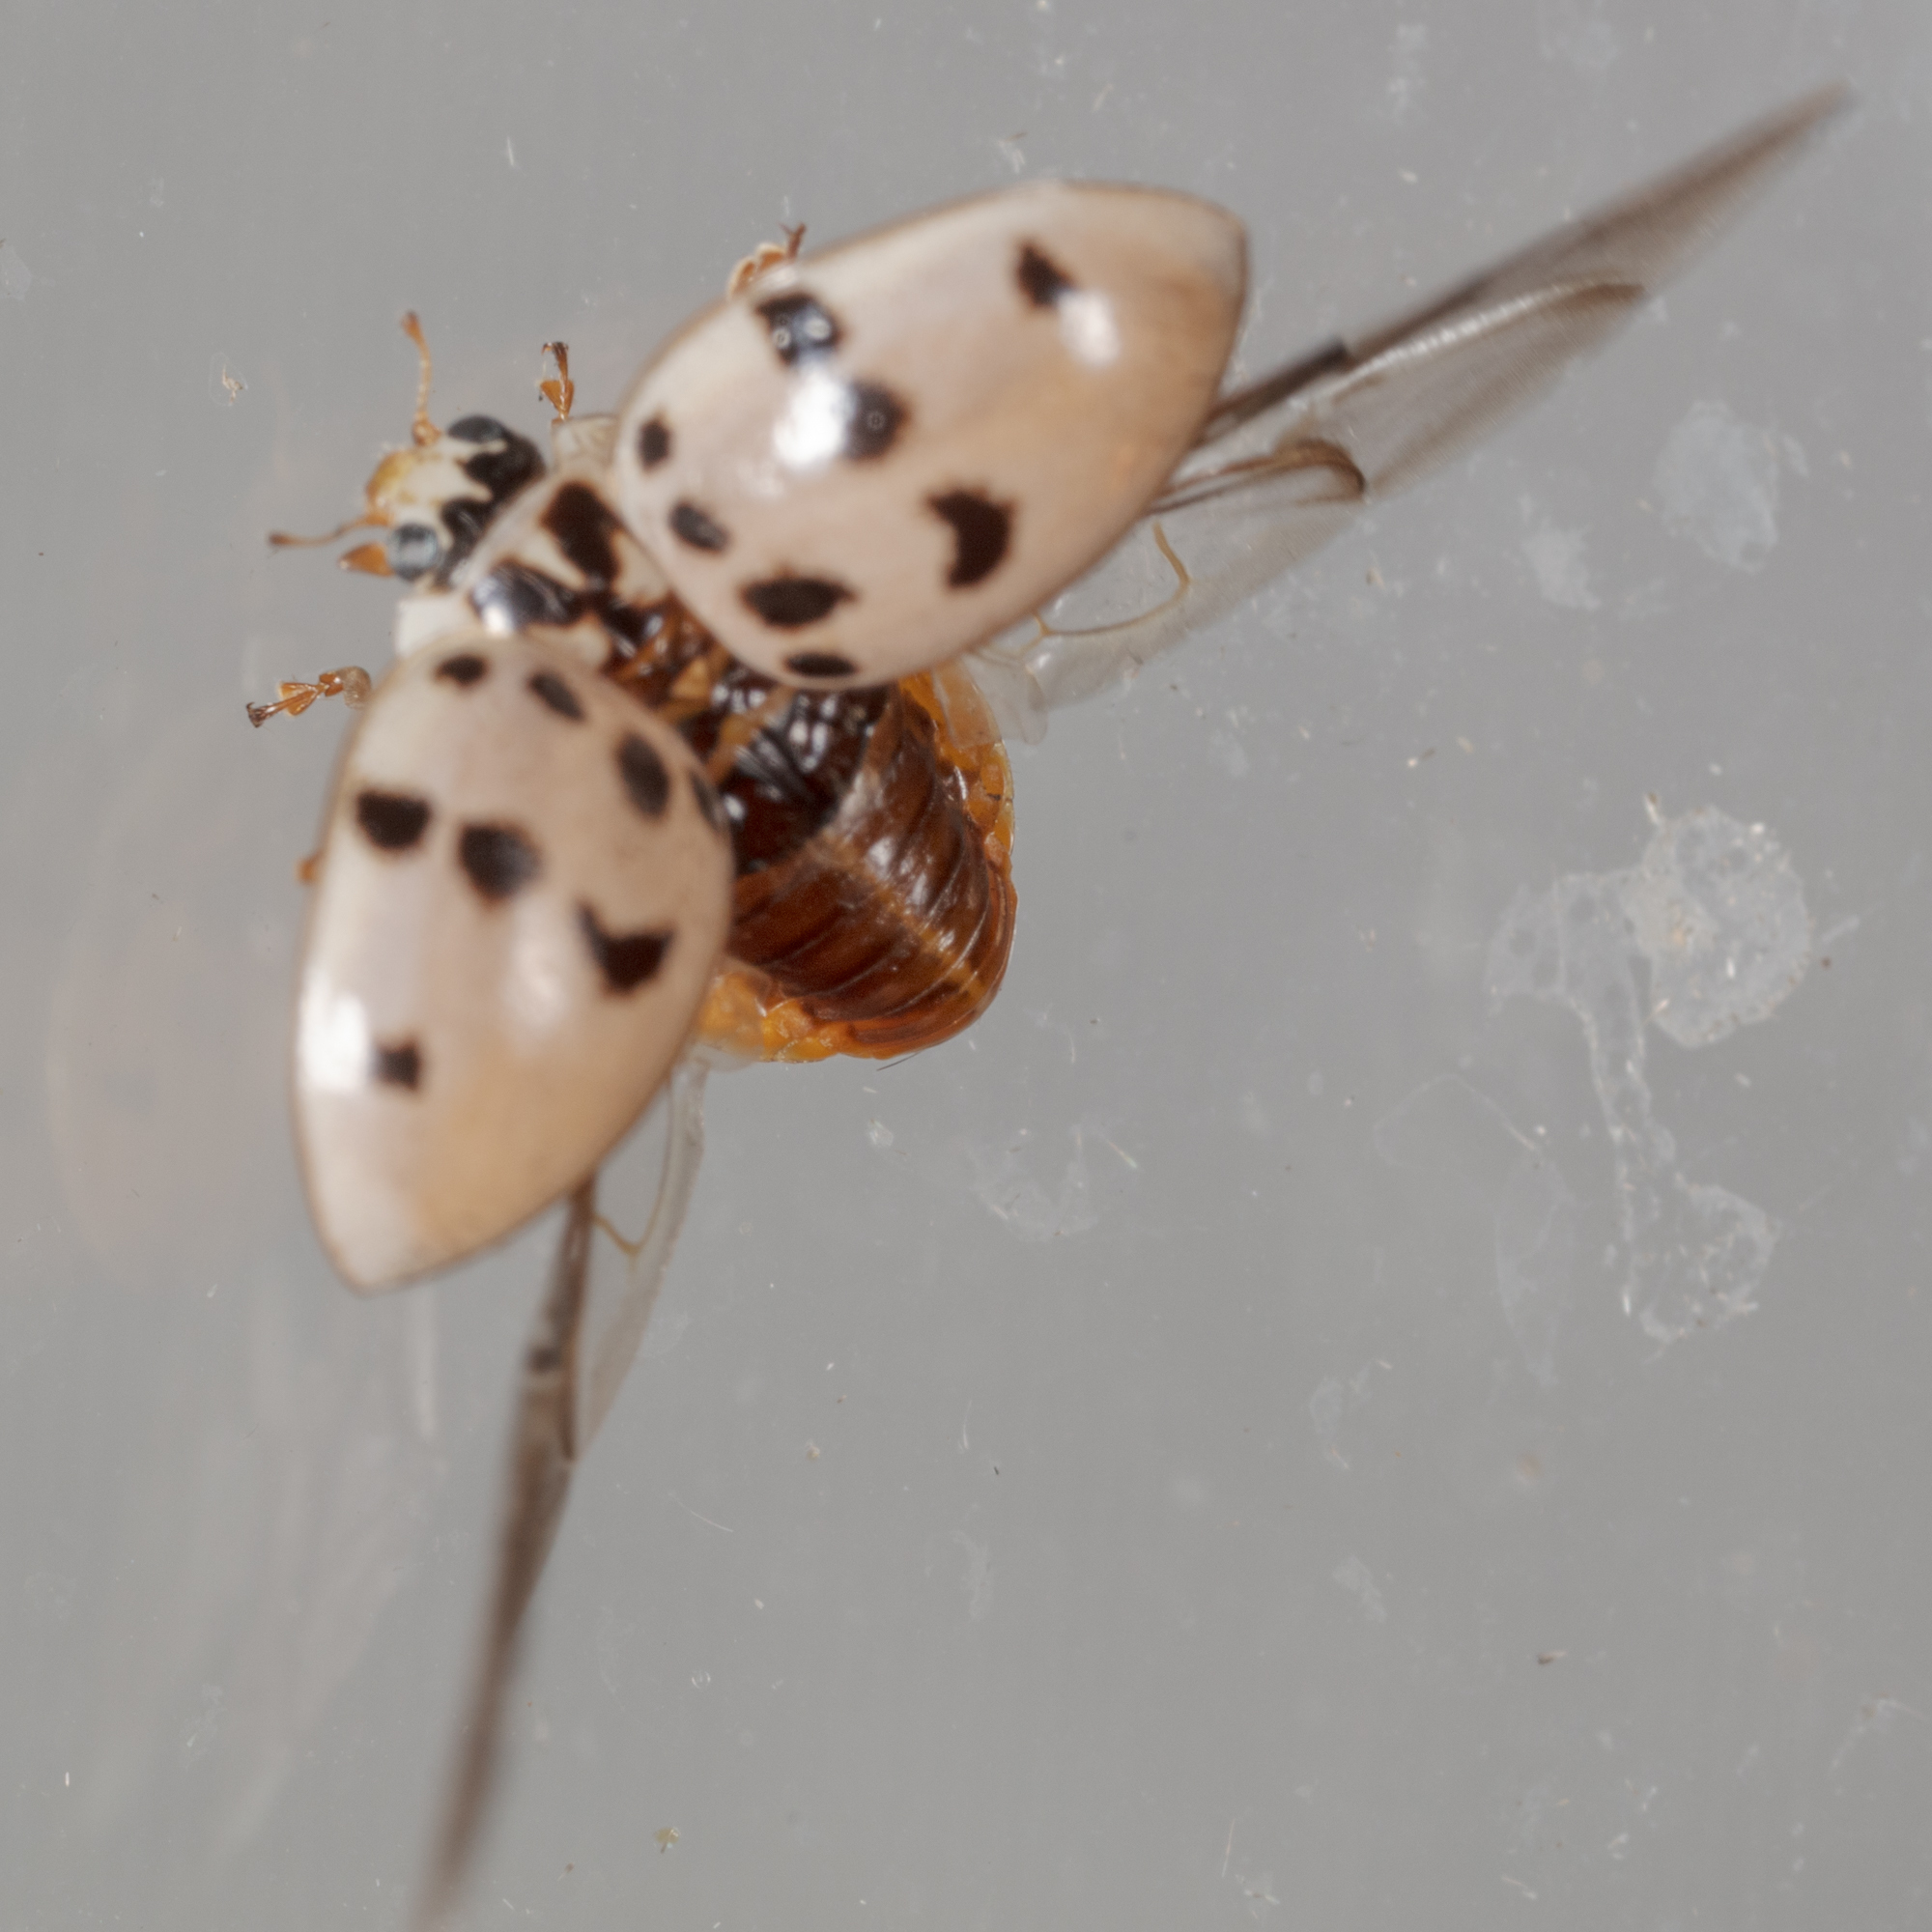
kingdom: Animalia
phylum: Arthropoda
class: Insecta
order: Coleoptera
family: Coccinellidae
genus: Olla
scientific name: Olla v-nigrum
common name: Ashy gray lady beetle
